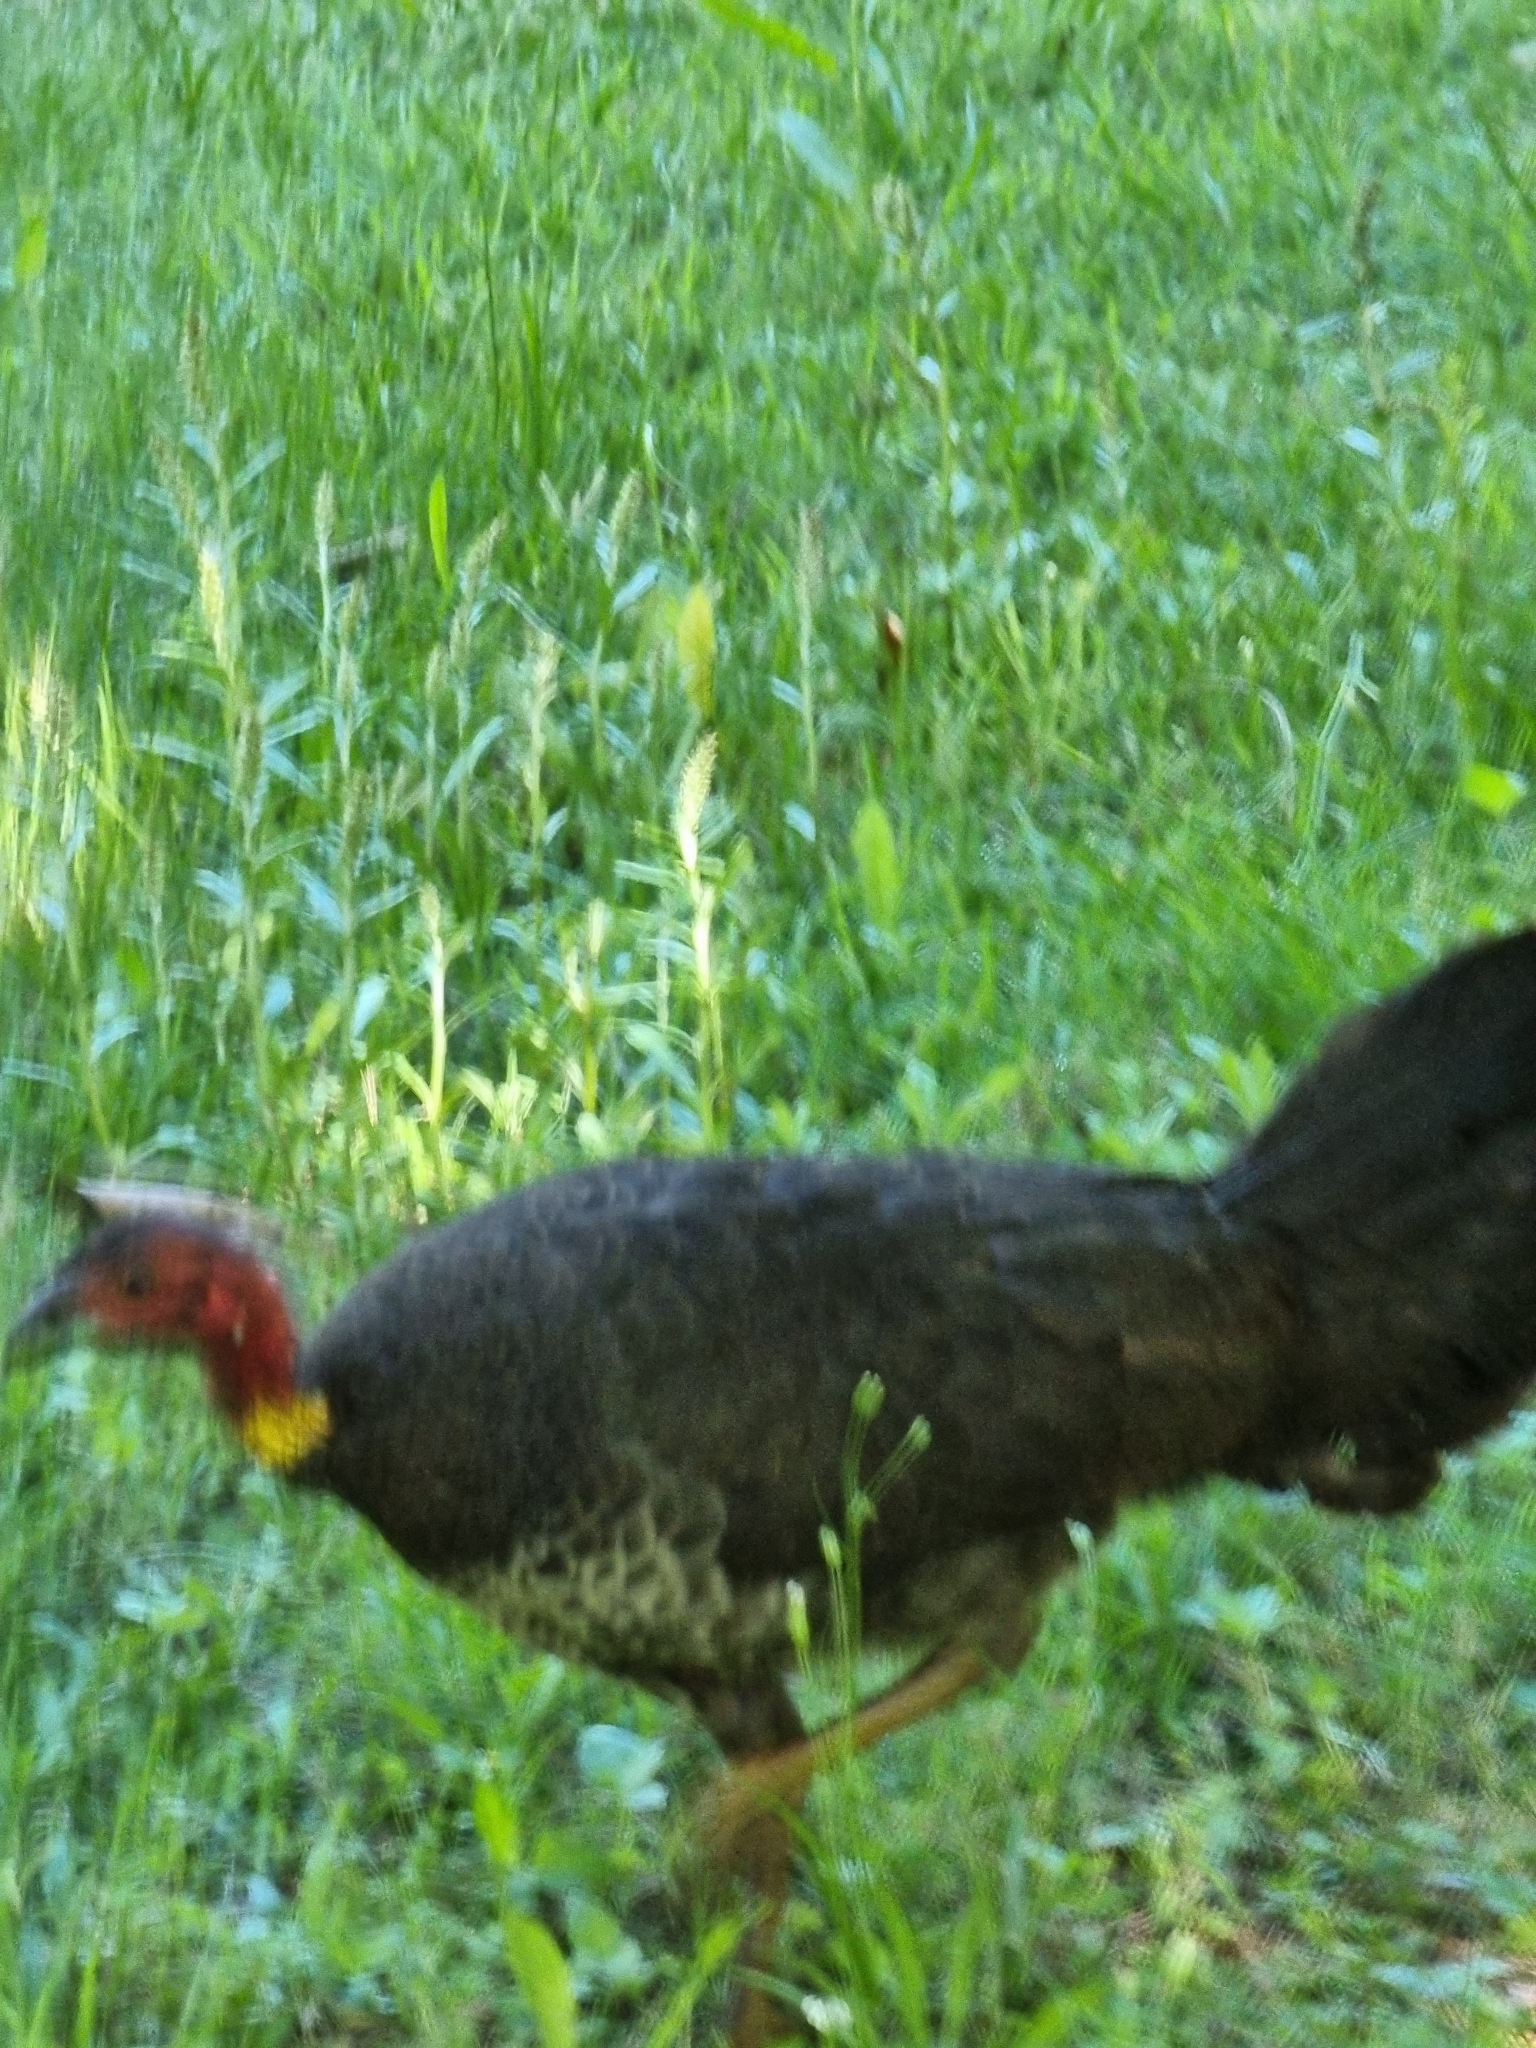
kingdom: Animalia
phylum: Chordata
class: Aves
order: Galliformes
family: Megapodiidae
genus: Alectura
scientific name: Alectura lathami
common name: Australian brushturkey
